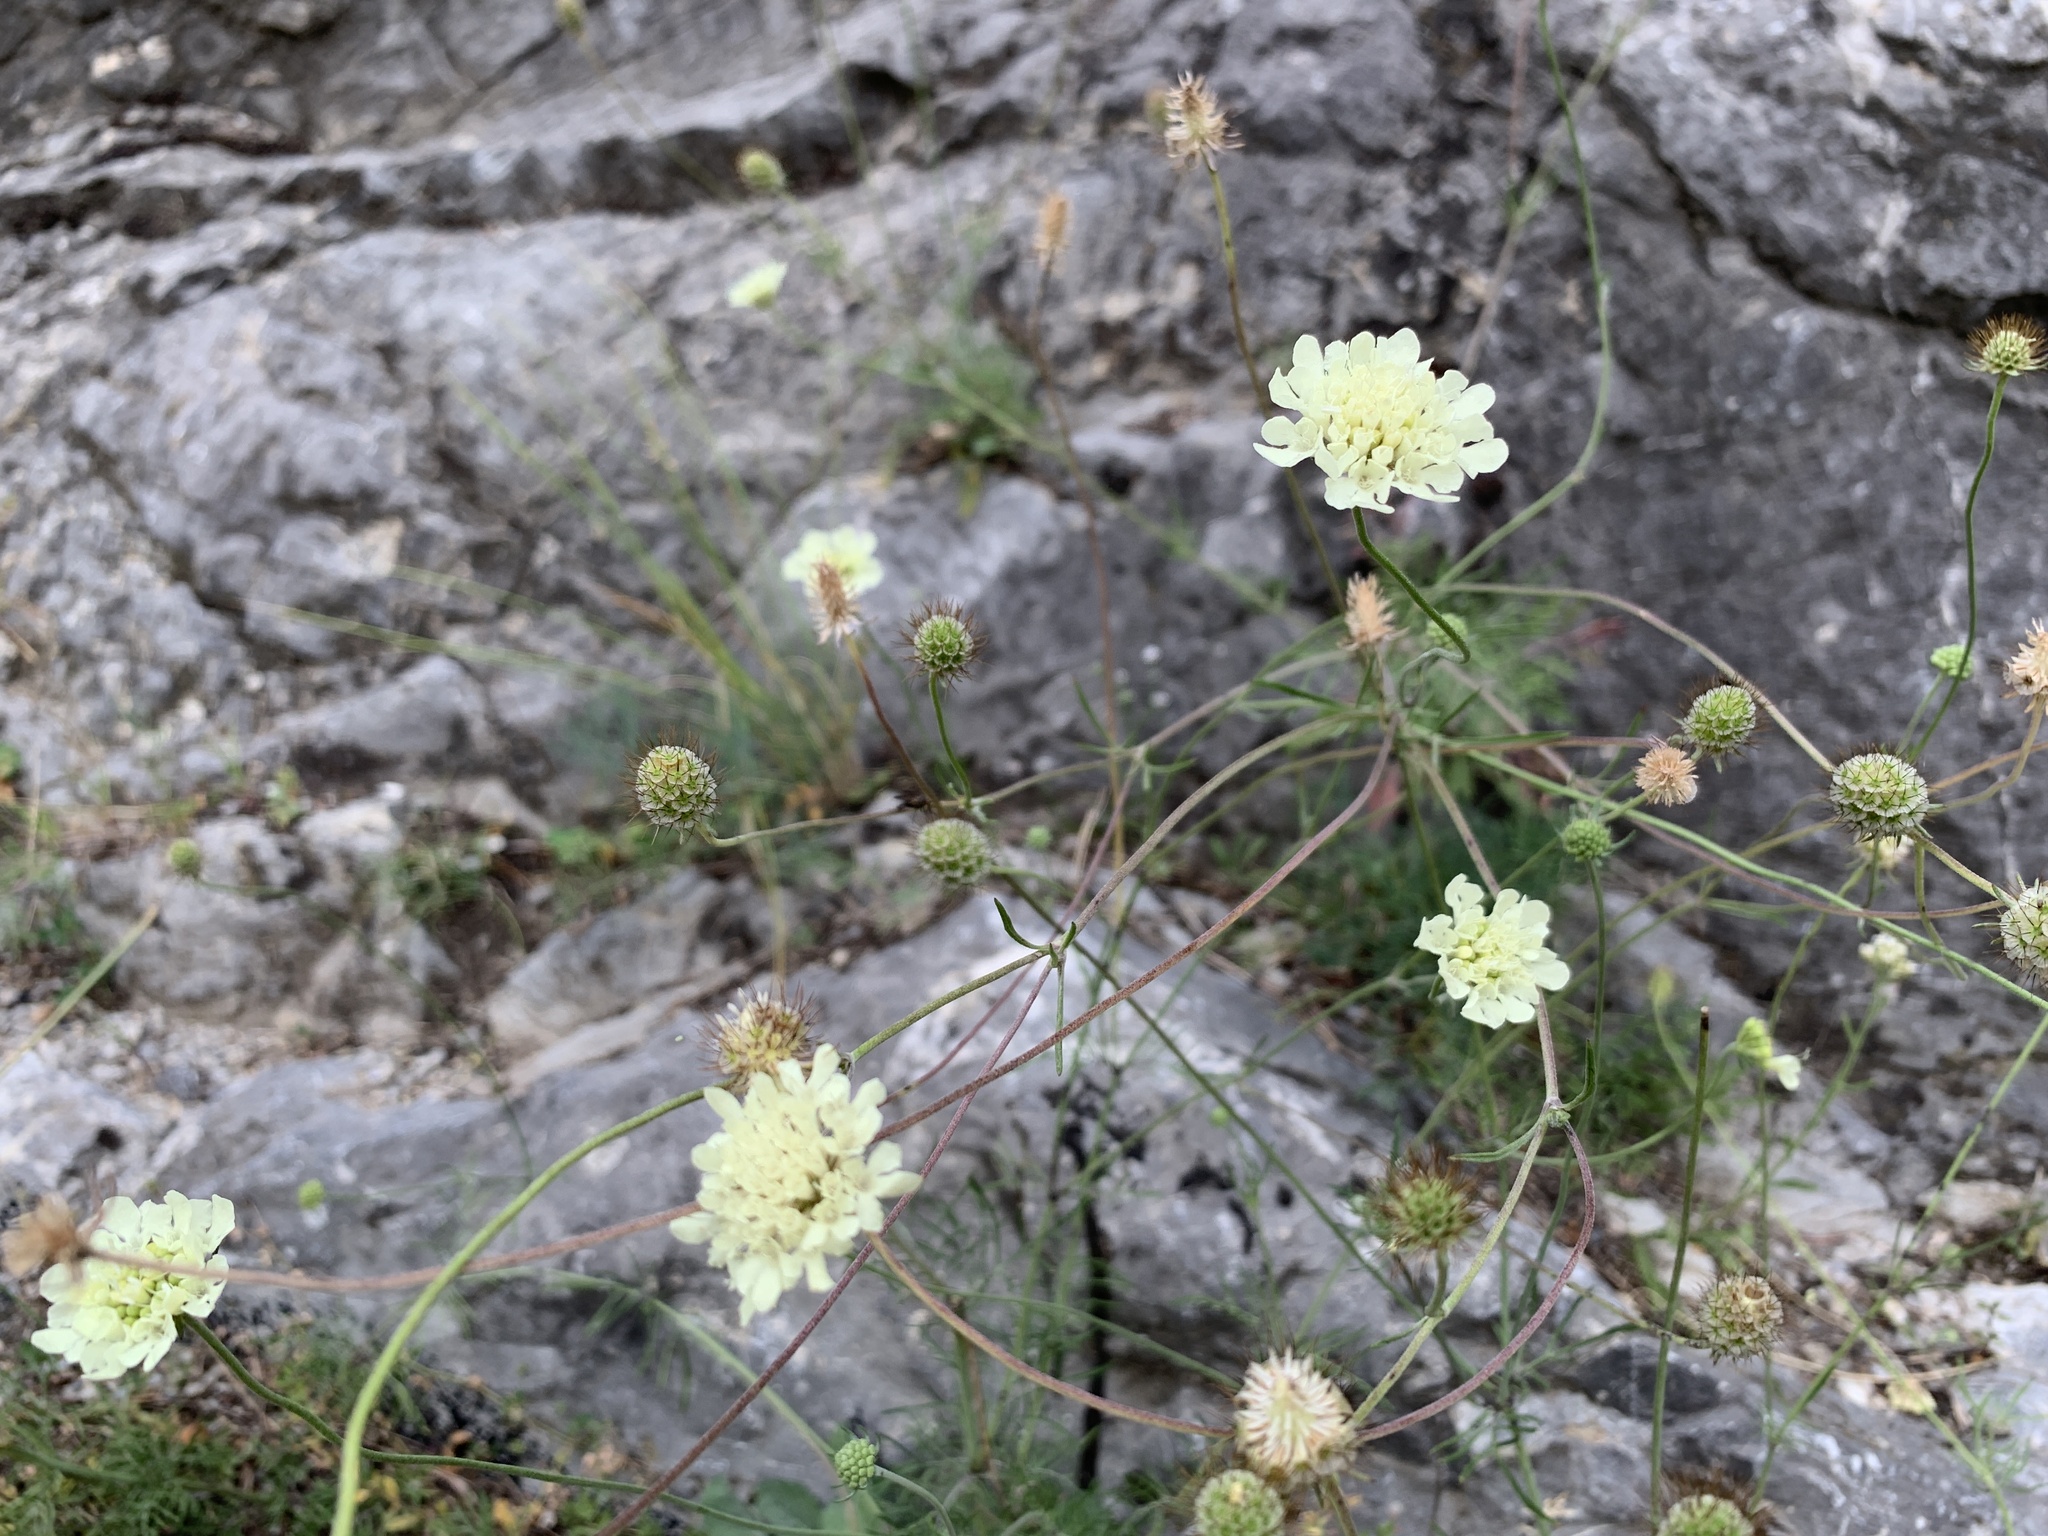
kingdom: Plantae
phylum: Tracheophyta
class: Magnoliopsida
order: Dipsacales
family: Caprifoliaceae
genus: Scabiosa
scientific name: Scabiosa ochroleuca
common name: Cream pincushions
